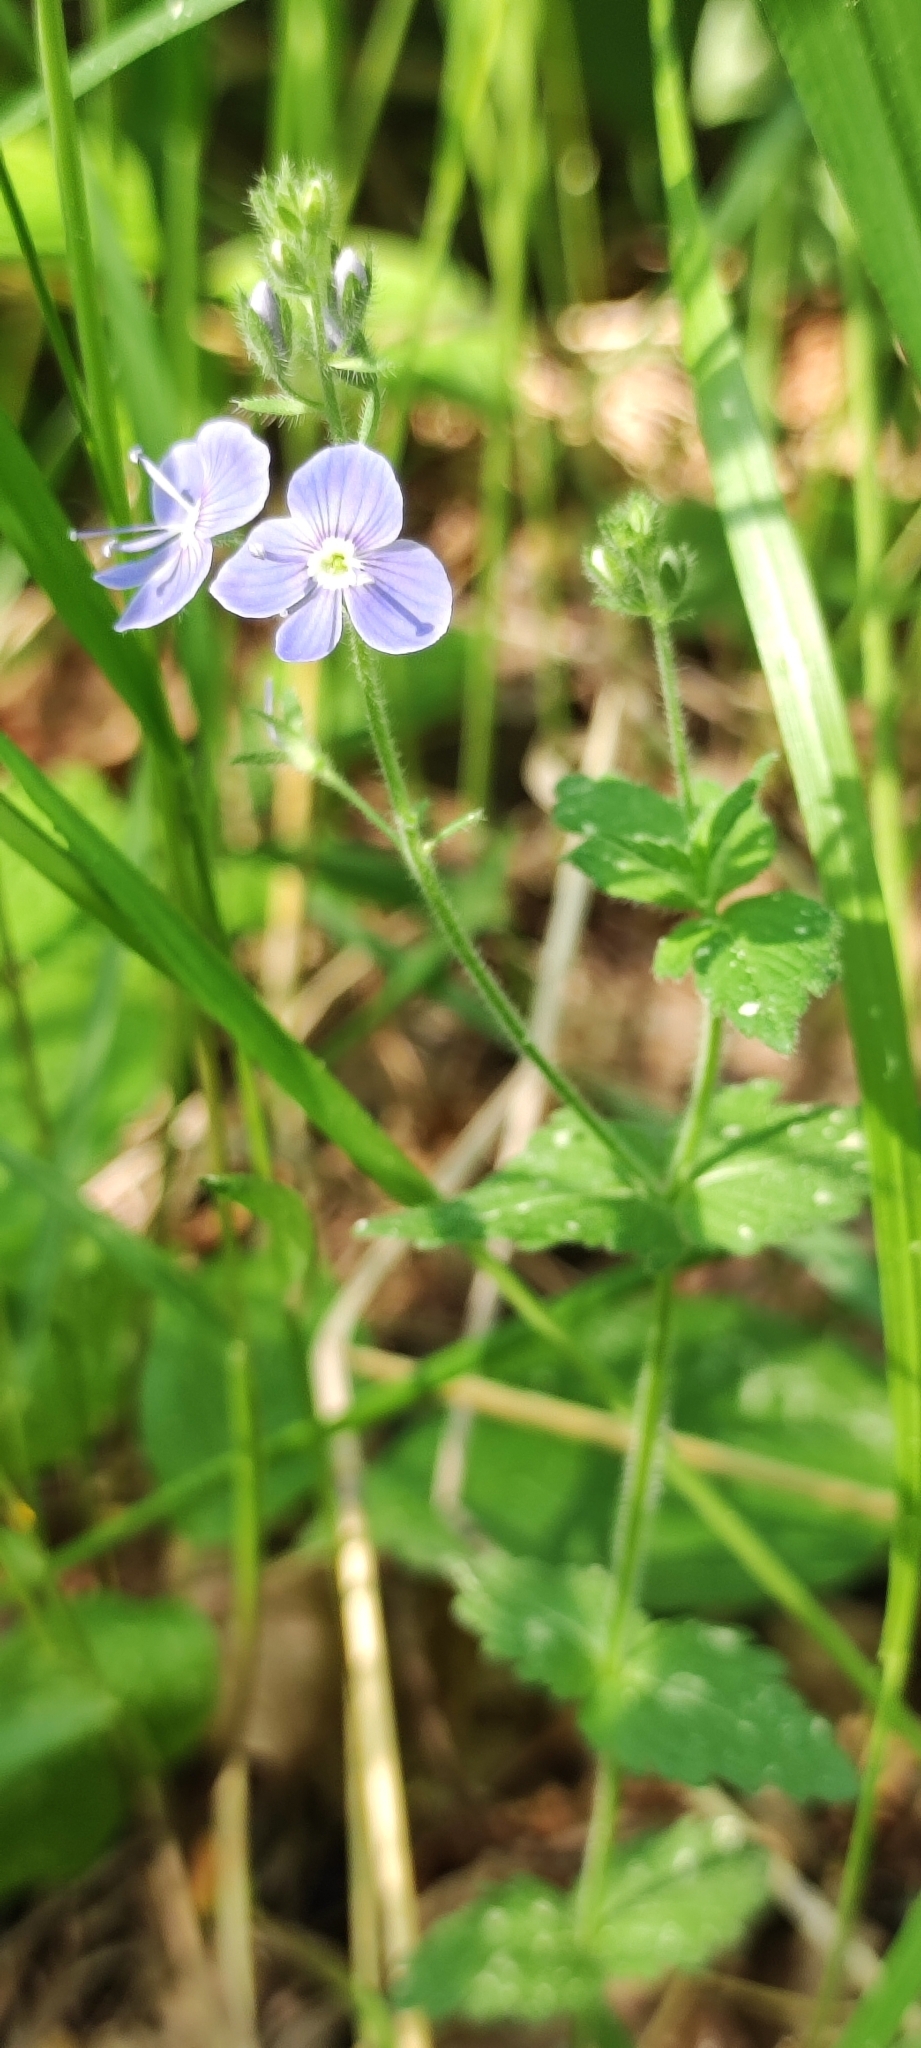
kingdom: Plantae
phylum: Tracheophyta
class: Magnoliopsida
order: Lamiales
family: Plantaginaceae
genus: Veronica
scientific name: Veronica chamaedrys
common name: Germander speedwell
